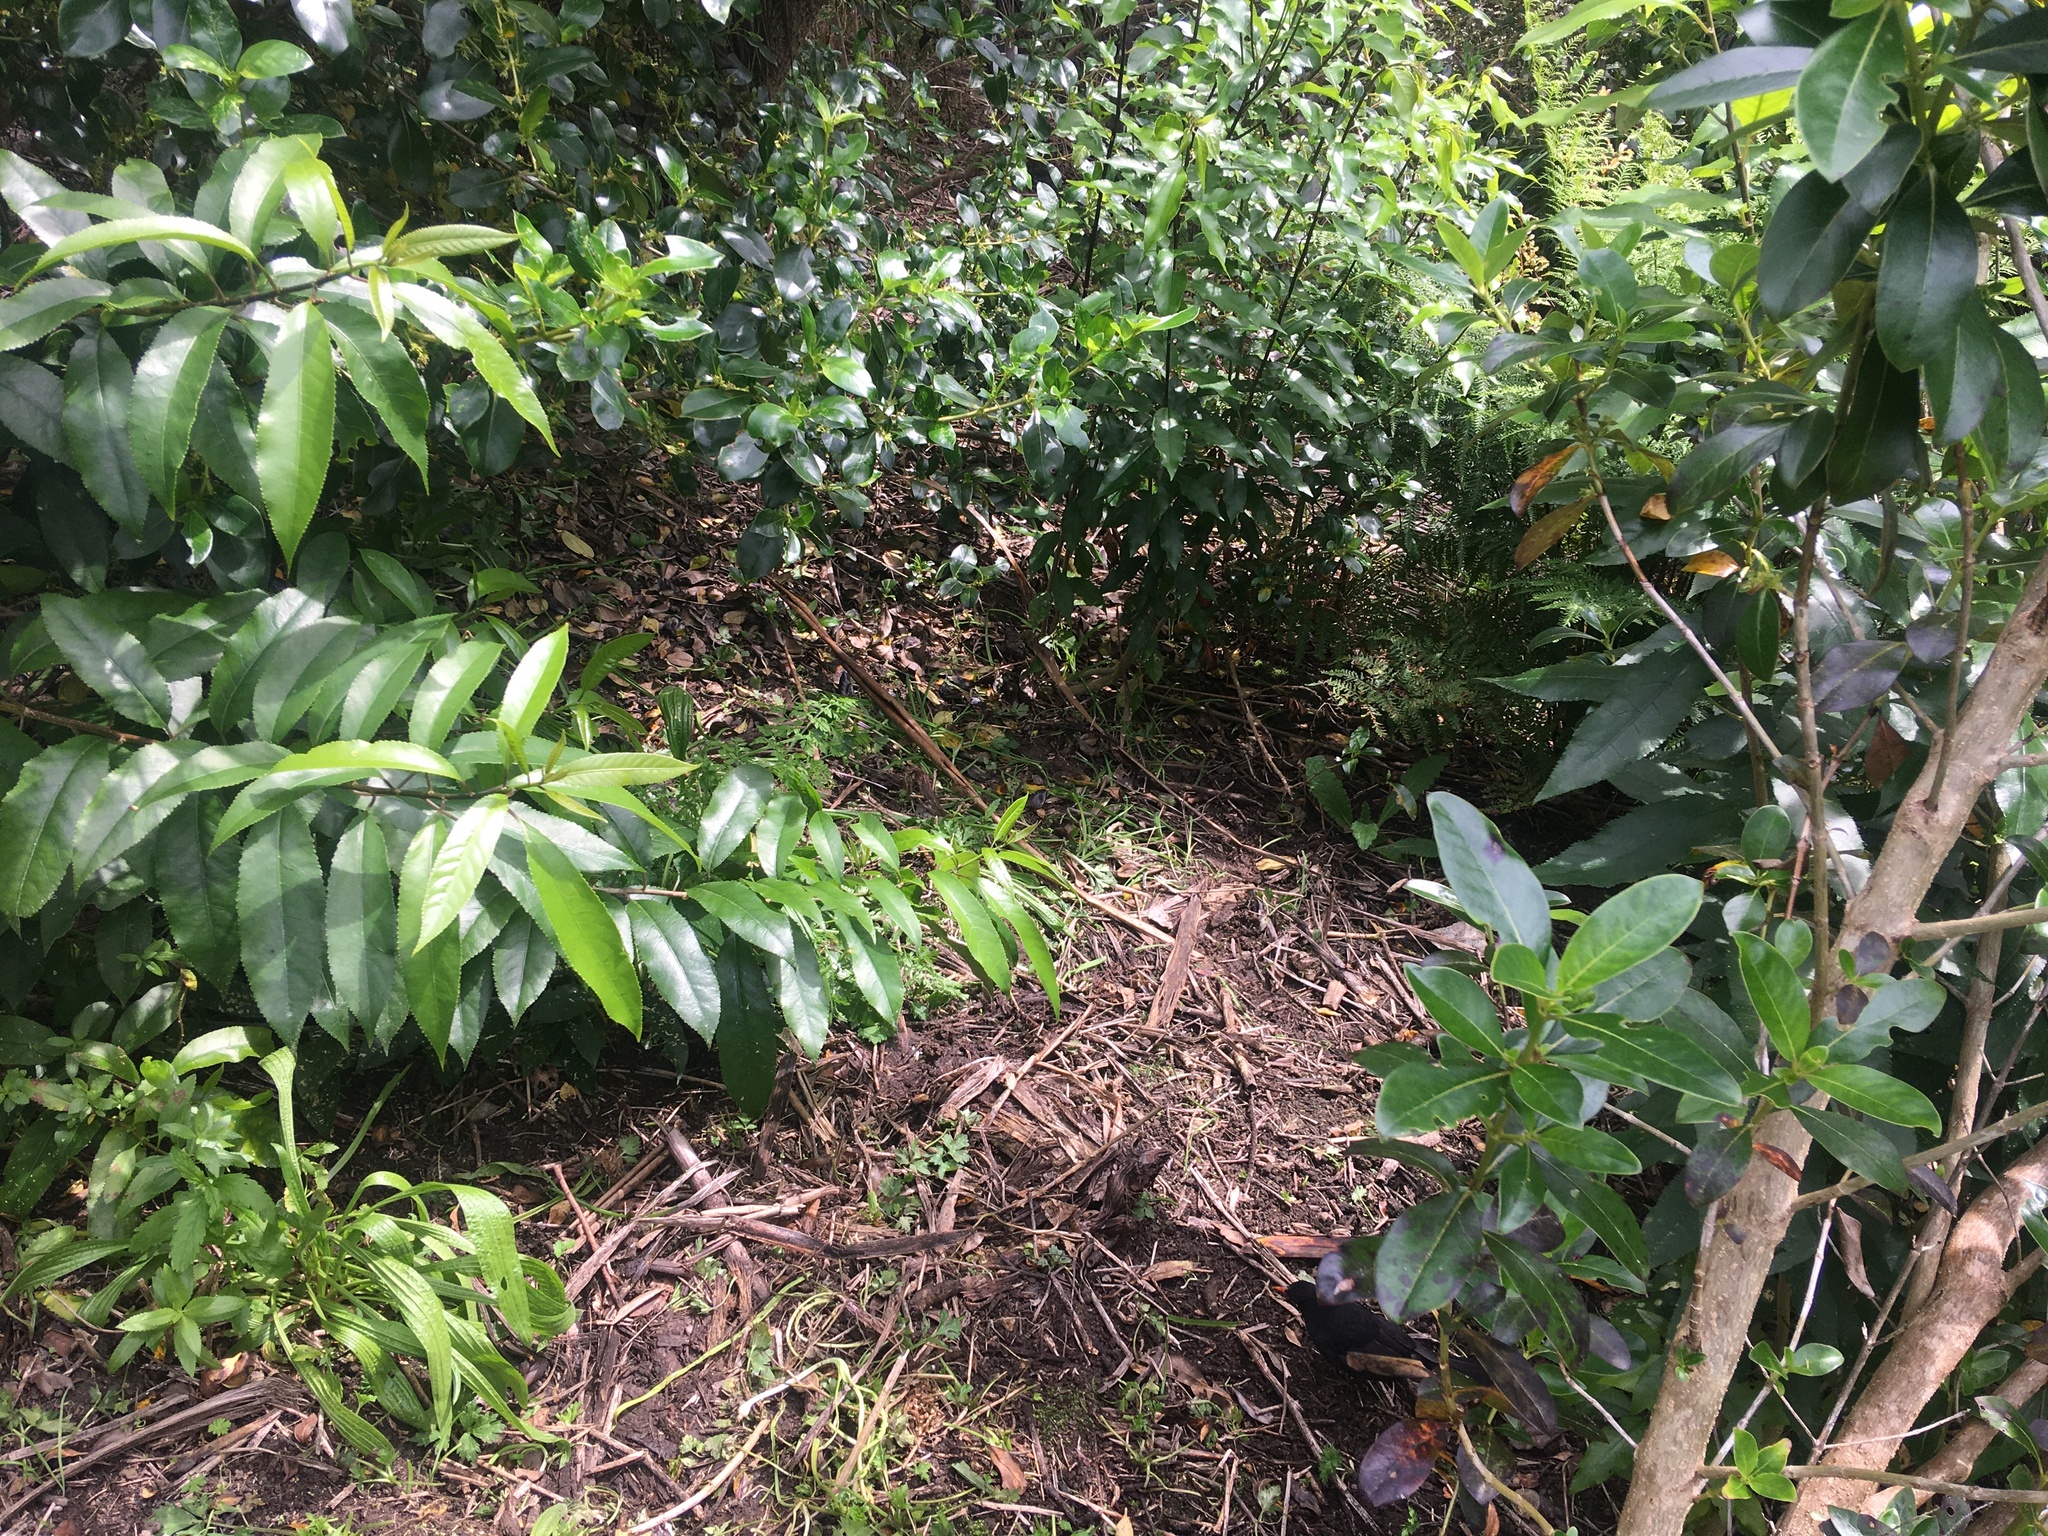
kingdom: Plantae
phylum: Tracheophyta
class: Magnoliopsida
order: Malpighiales
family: Violaceae
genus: Melicytus
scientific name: Melicytus ramiflorus
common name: Mahoe
